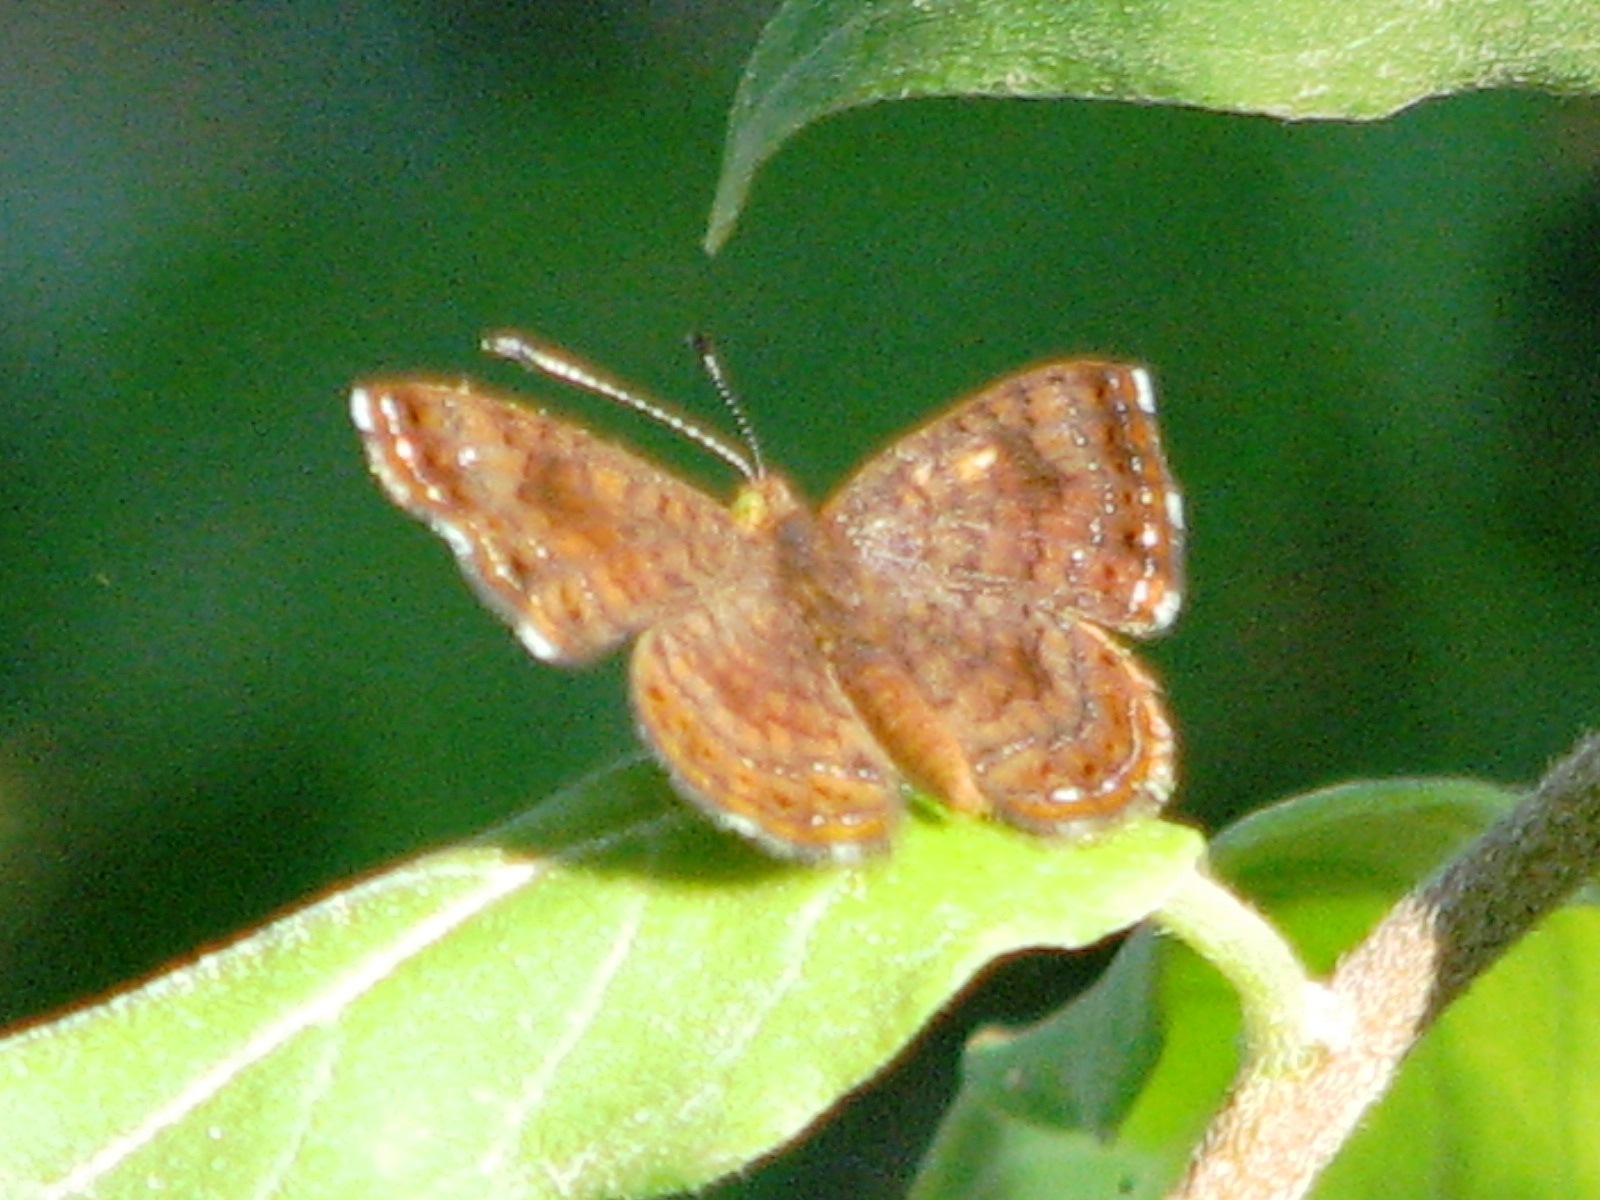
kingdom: Animalia
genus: Calephelis
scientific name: Calephelis nemesis
